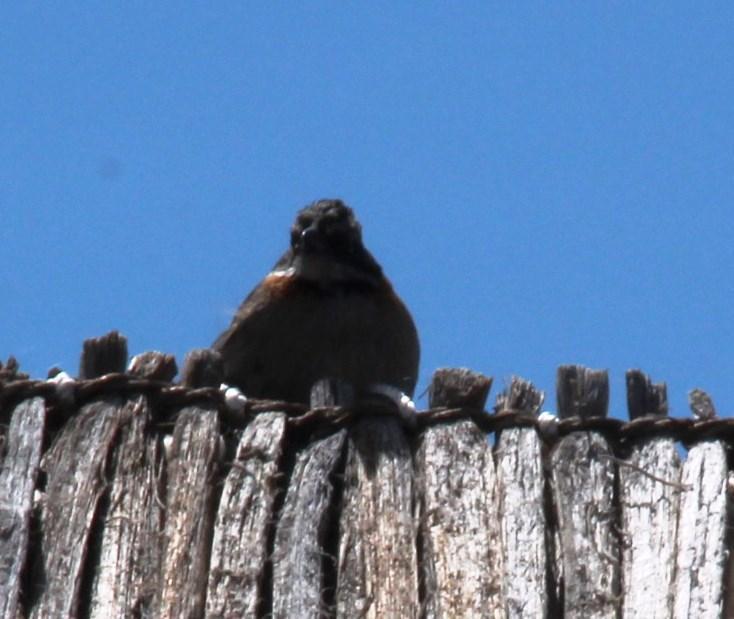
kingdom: Animalia
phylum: Chordata
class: Aves
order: Passeriformes
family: Passerellidae
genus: Zonotrichia
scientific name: Zonotrichia capensis
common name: Rufous-collared sparrow
